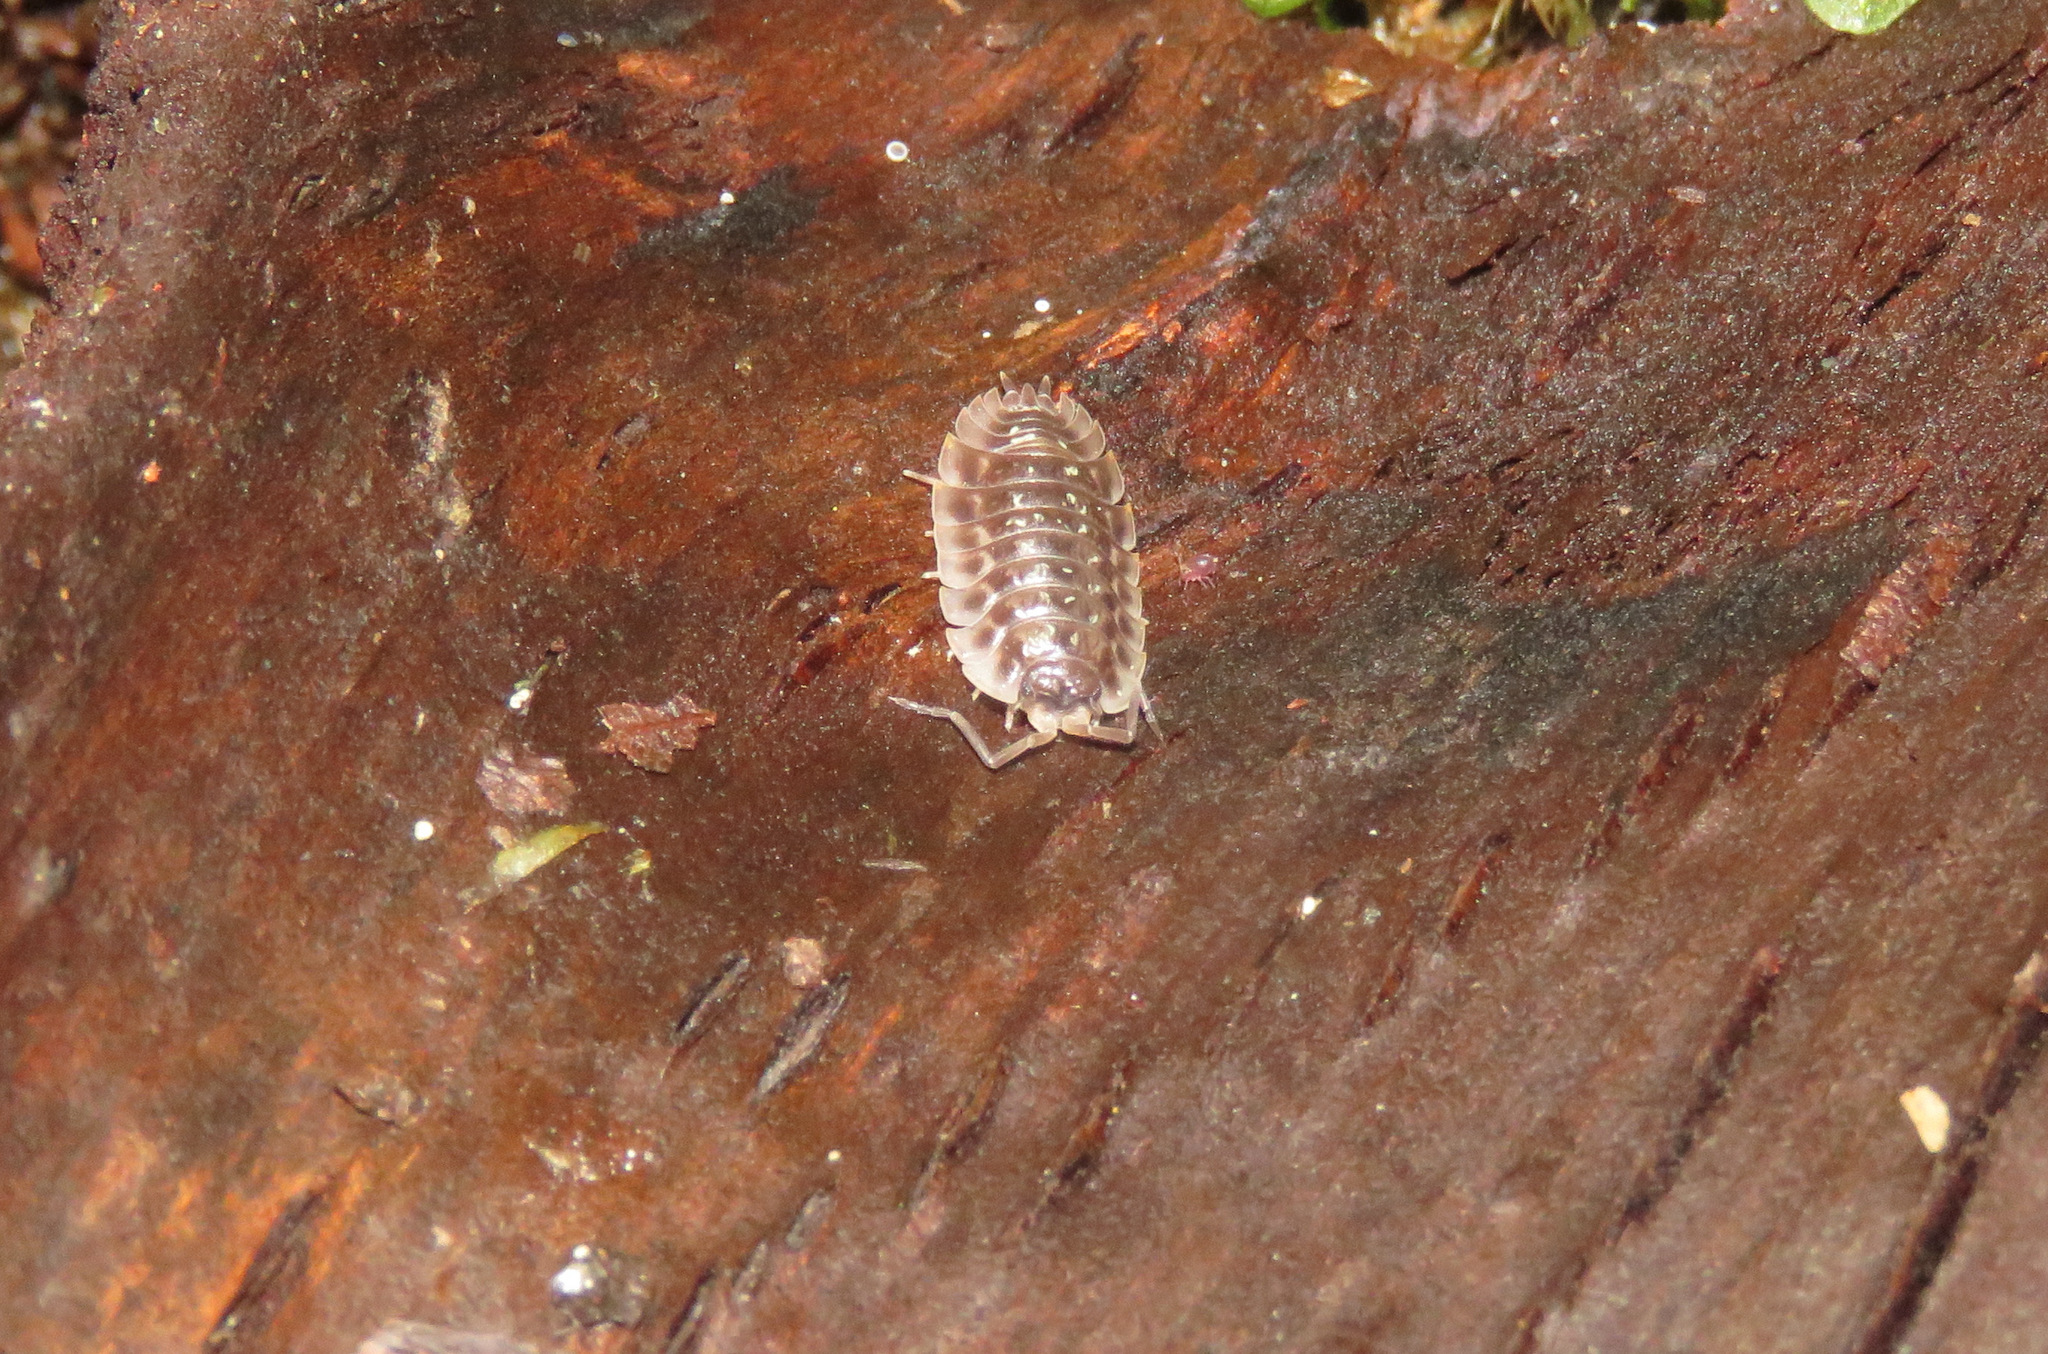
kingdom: Animalia
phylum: Arthropoda
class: Malacostraca
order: Isopoda
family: Oniscidae
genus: Oniscus
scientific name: Oniscus asellus
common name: Common shiny woodlouse
